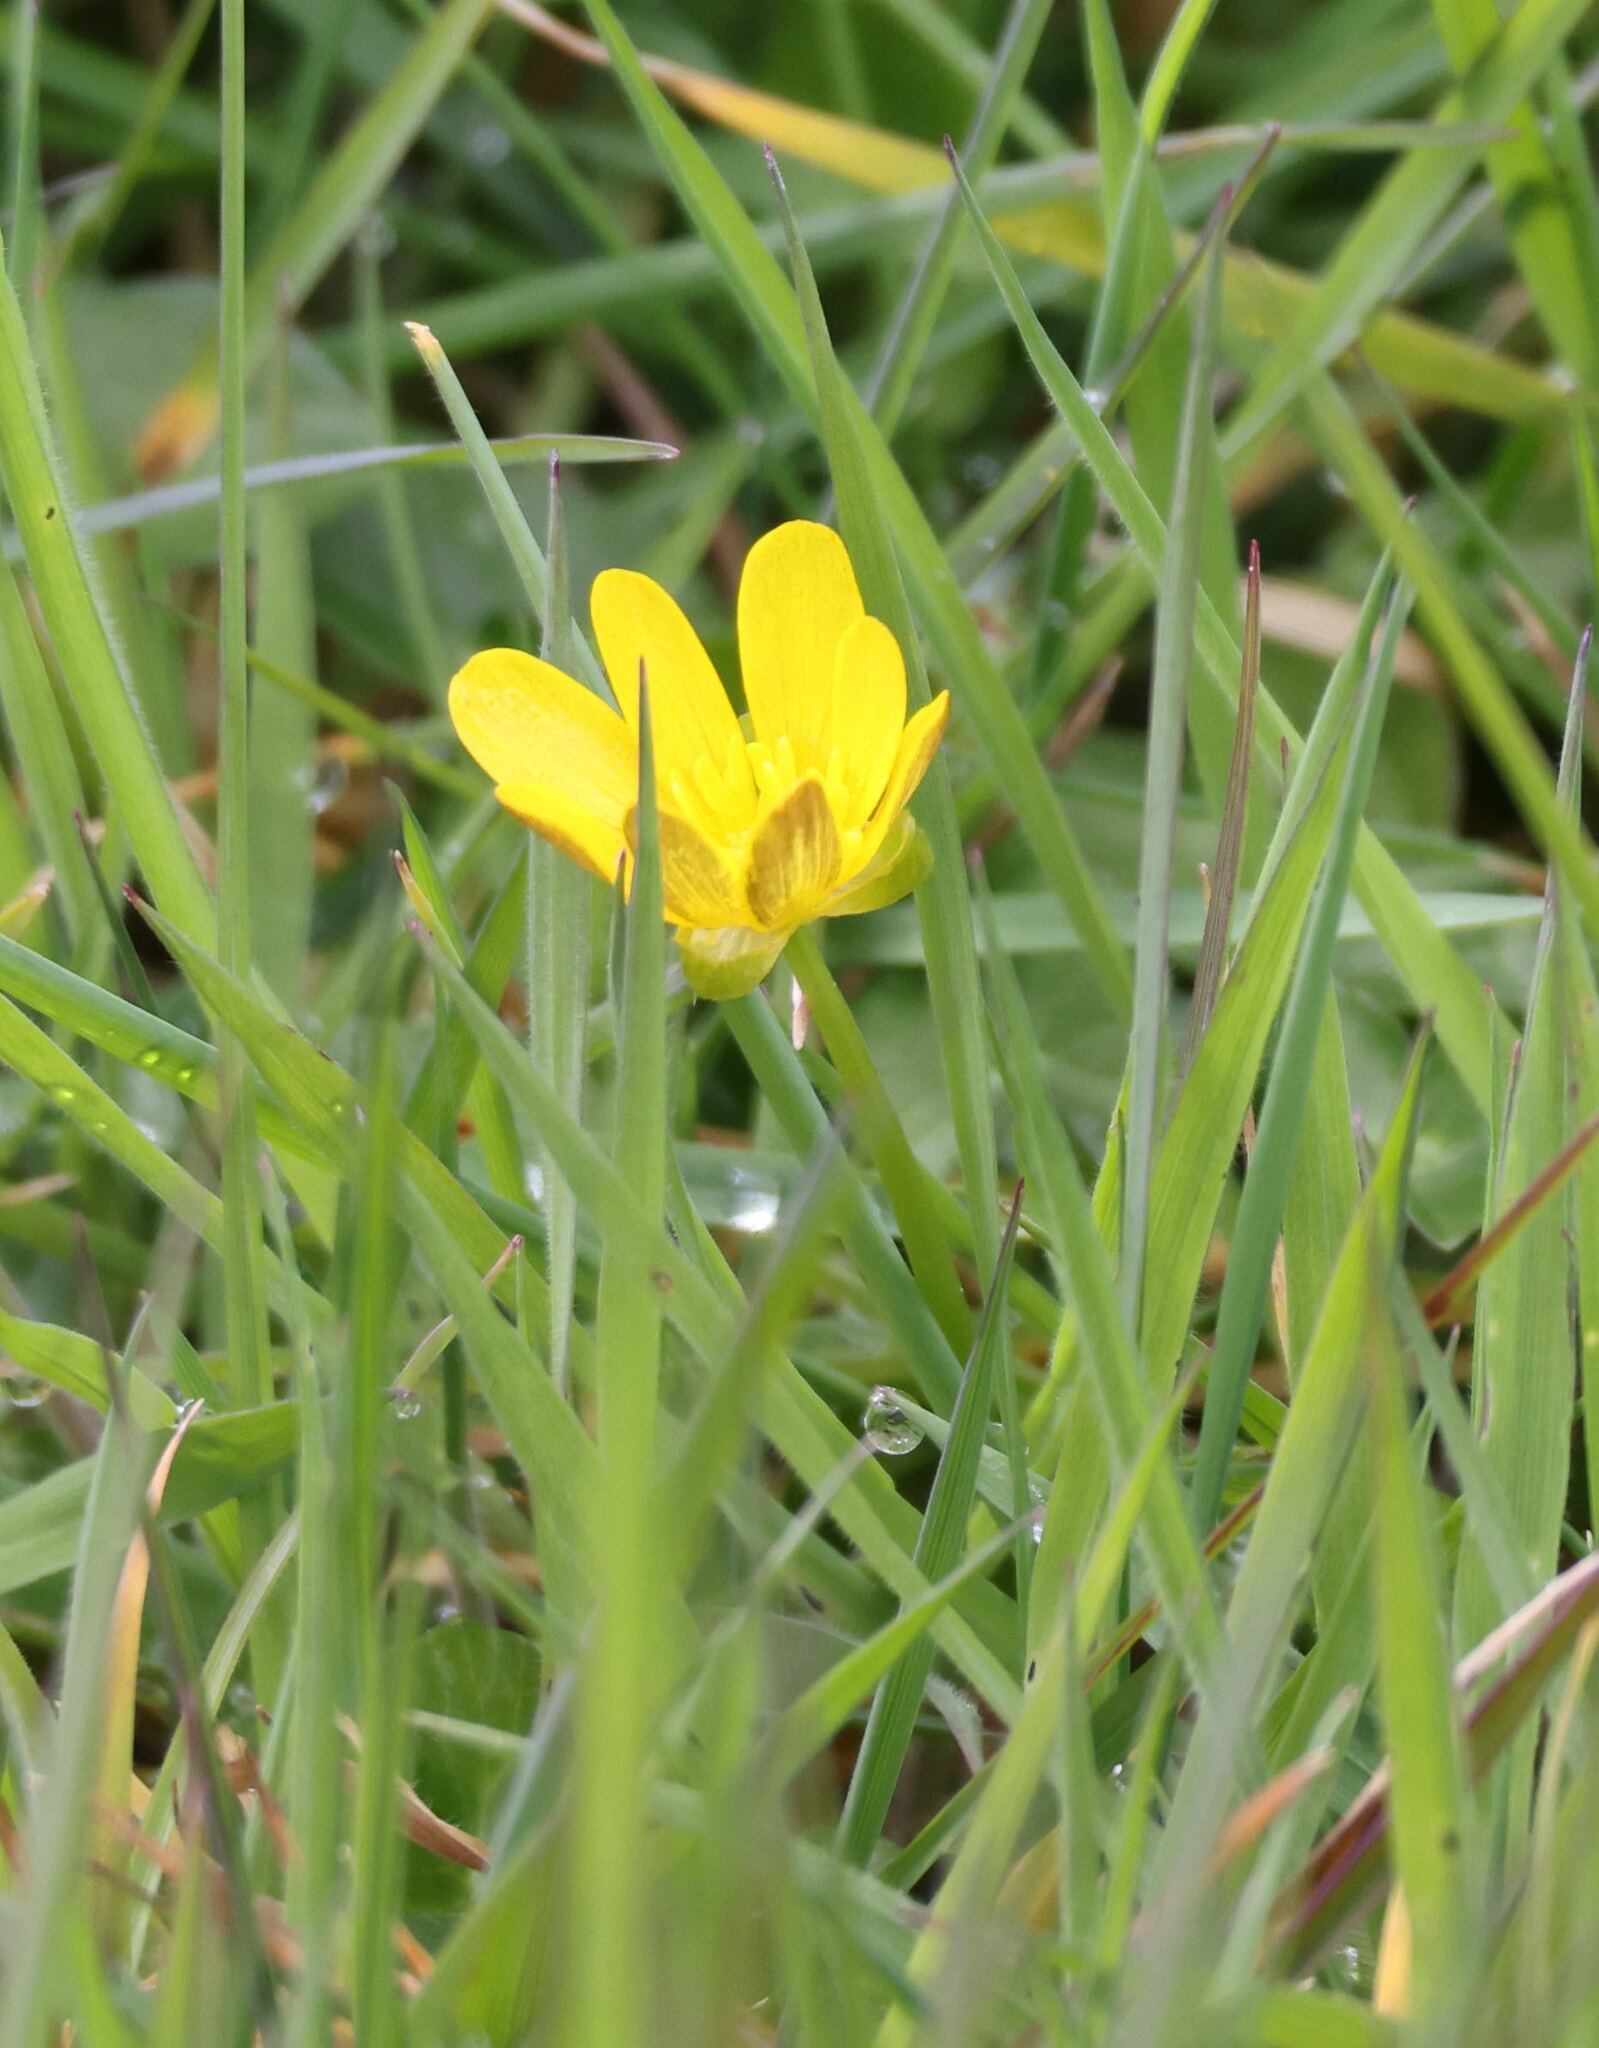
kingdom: Plantae
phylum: Tracheophyta
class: Magnoliopsida
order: Ranunculales
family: Ranunculaceae
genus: Ficaria
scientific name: Ficaria verna
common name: Lesser celandine
